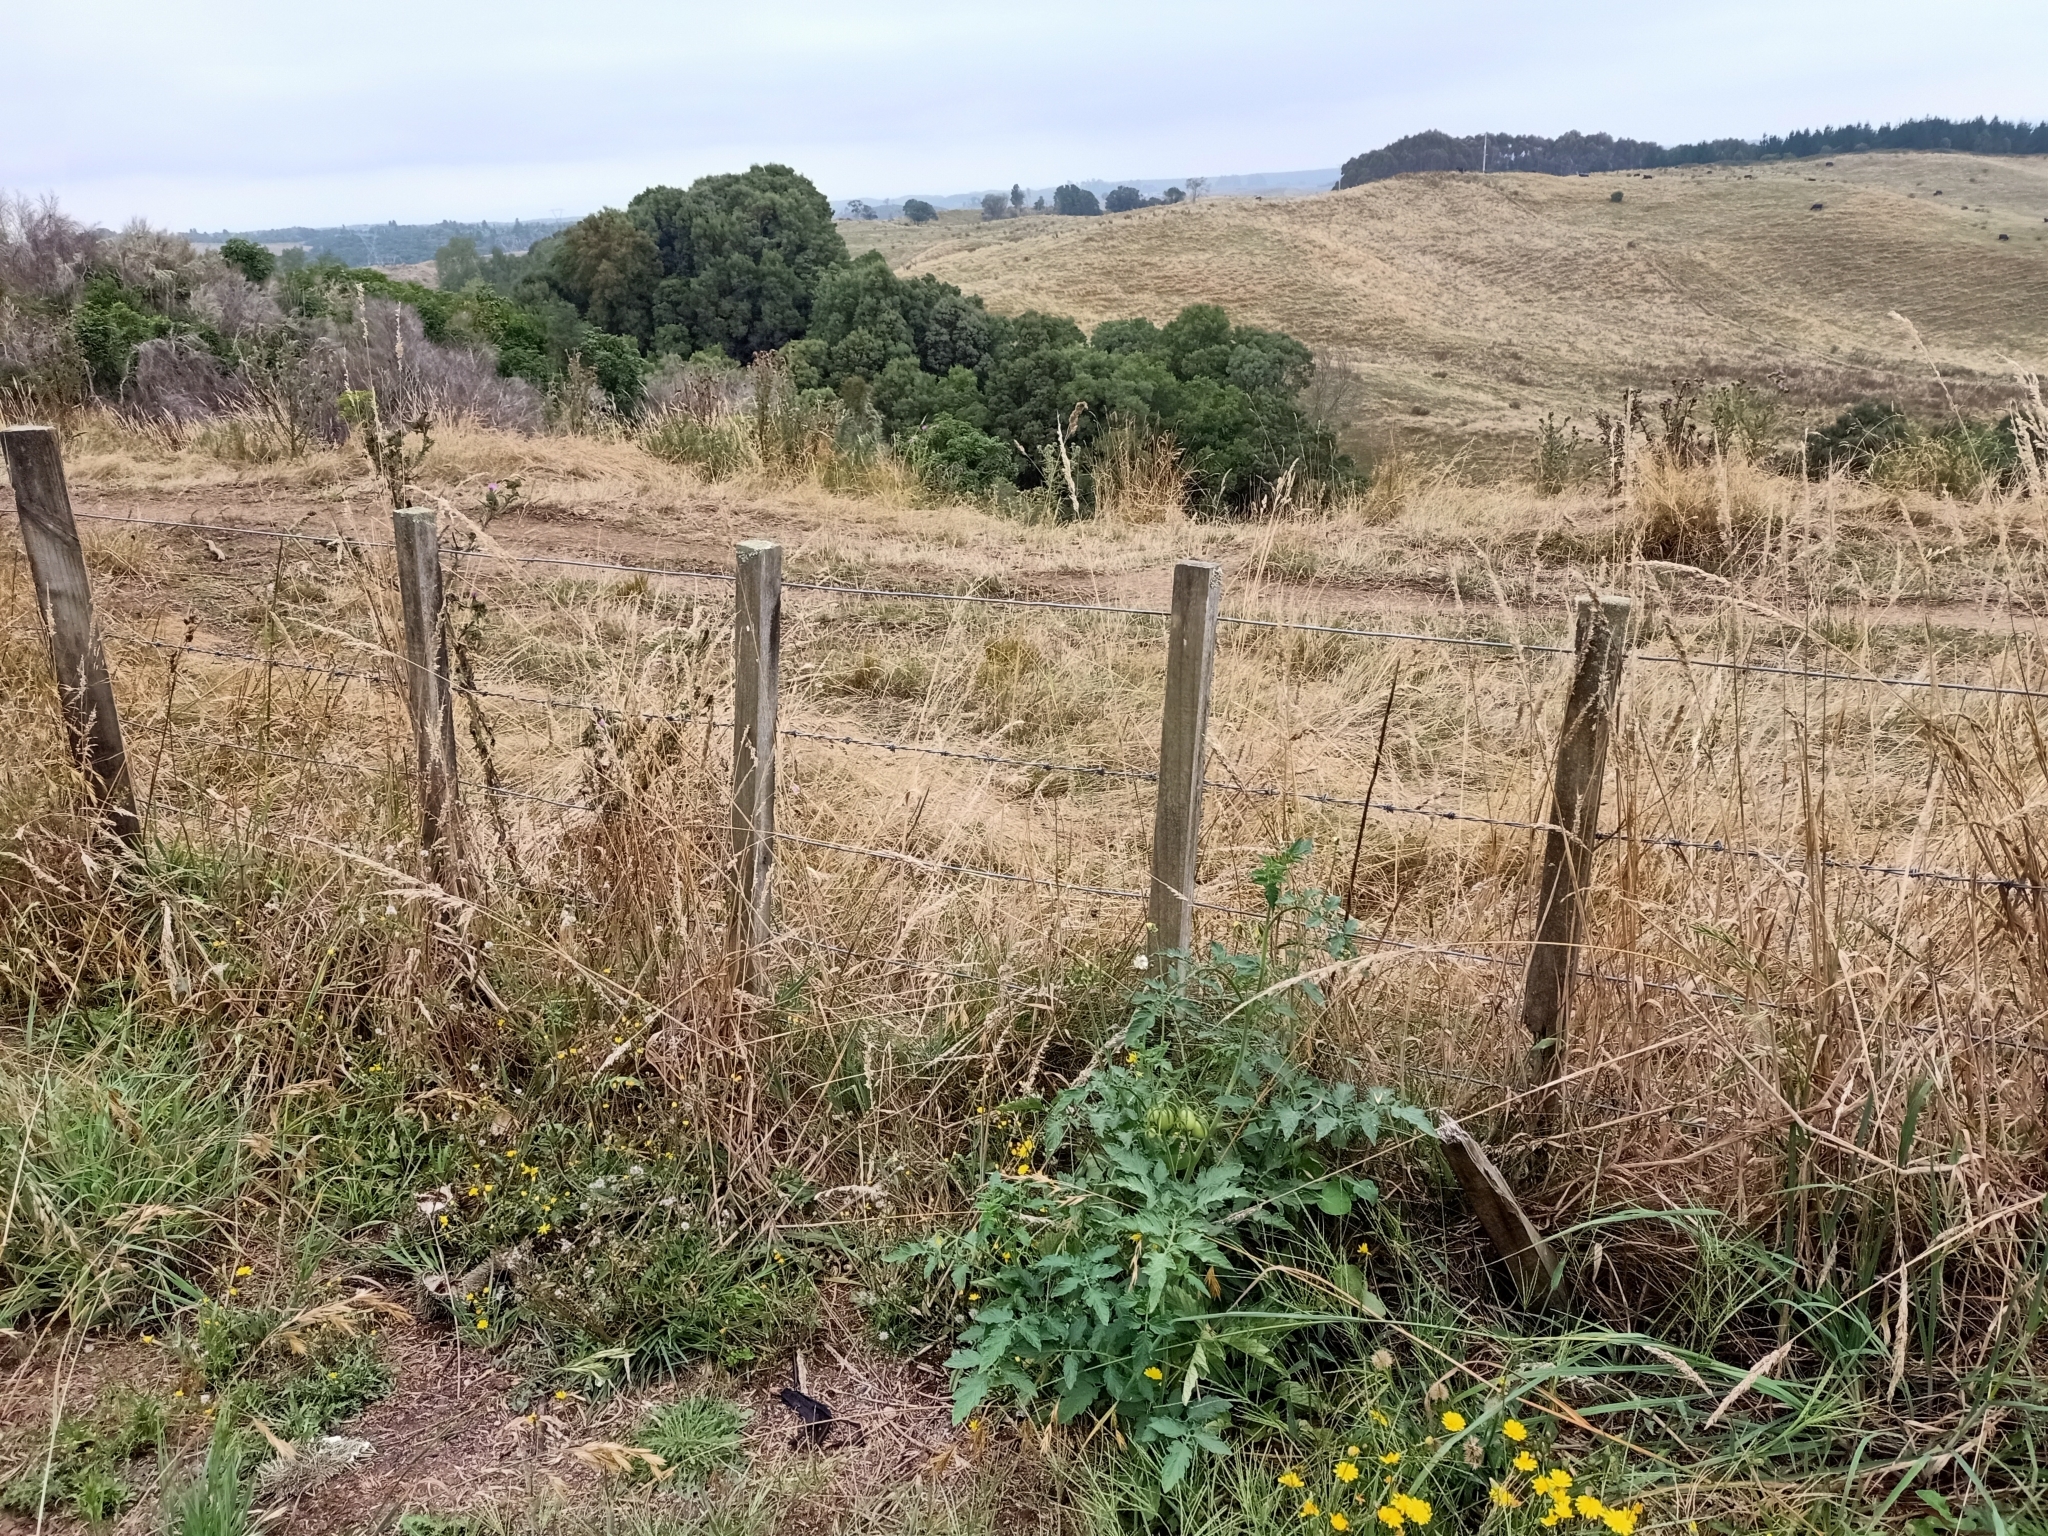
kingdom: Plantae
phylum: Tracheophyta
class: Magnoliopsida
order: Solanales
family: Solanaceae
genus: Solanum
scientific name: Solanum lycopersicum
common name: Garden tomato
